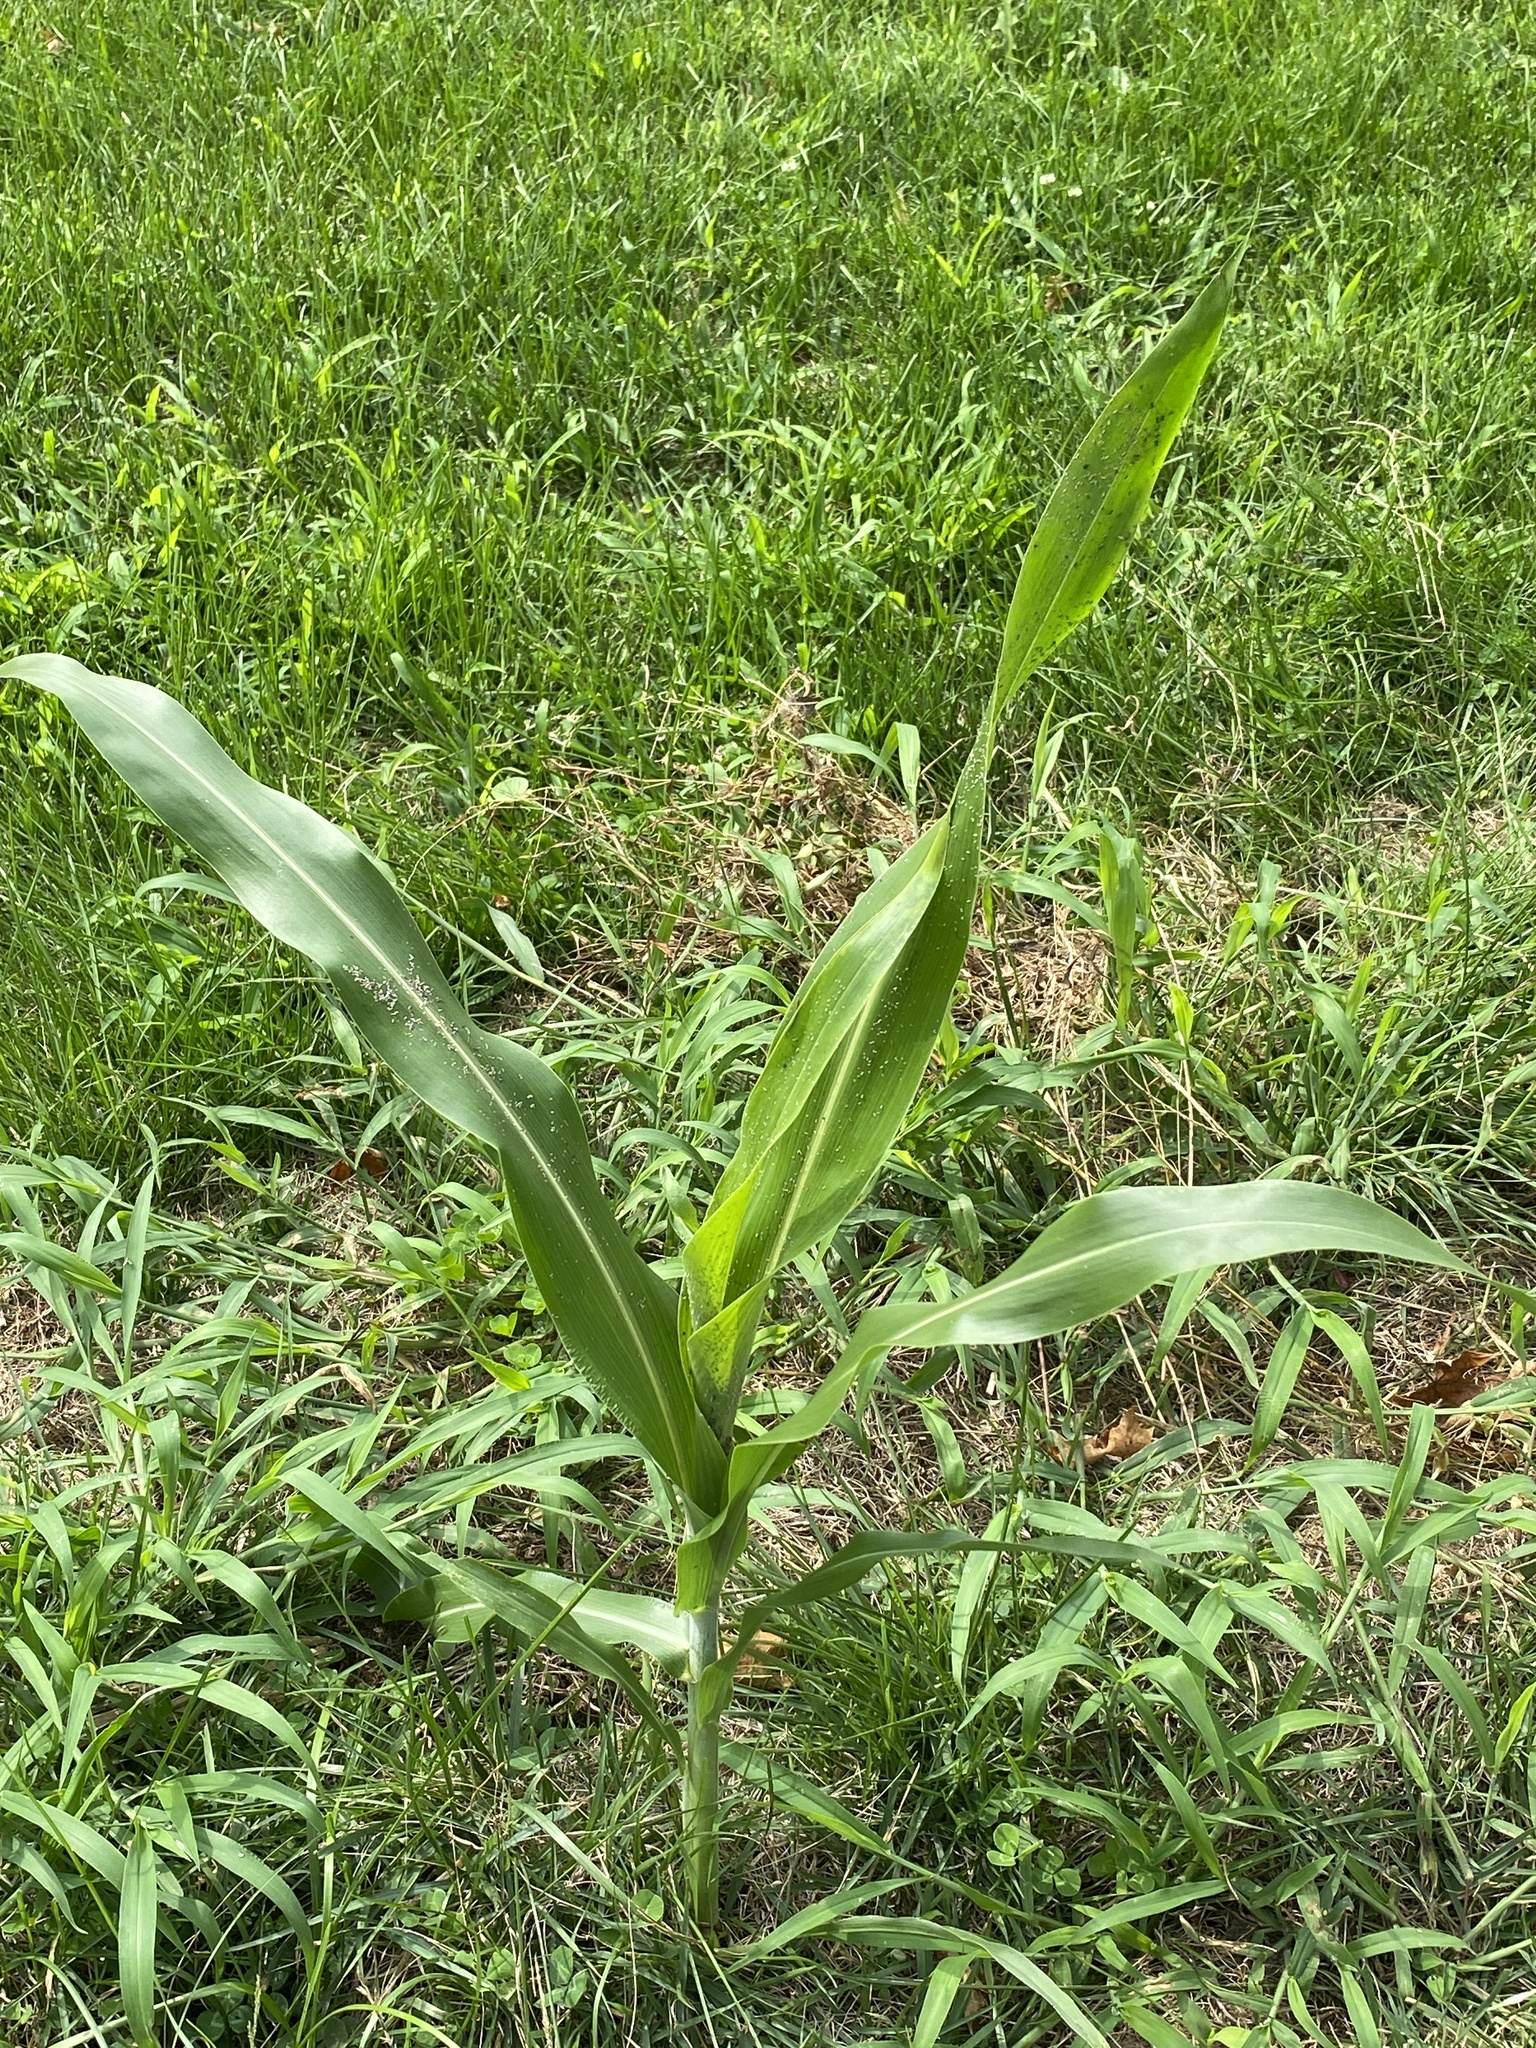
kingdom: Plantae
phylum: Tracheophyta
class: Liliopsida
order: Poales
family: Poaceae
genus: Zea
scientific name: Zea mays
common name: Maize
